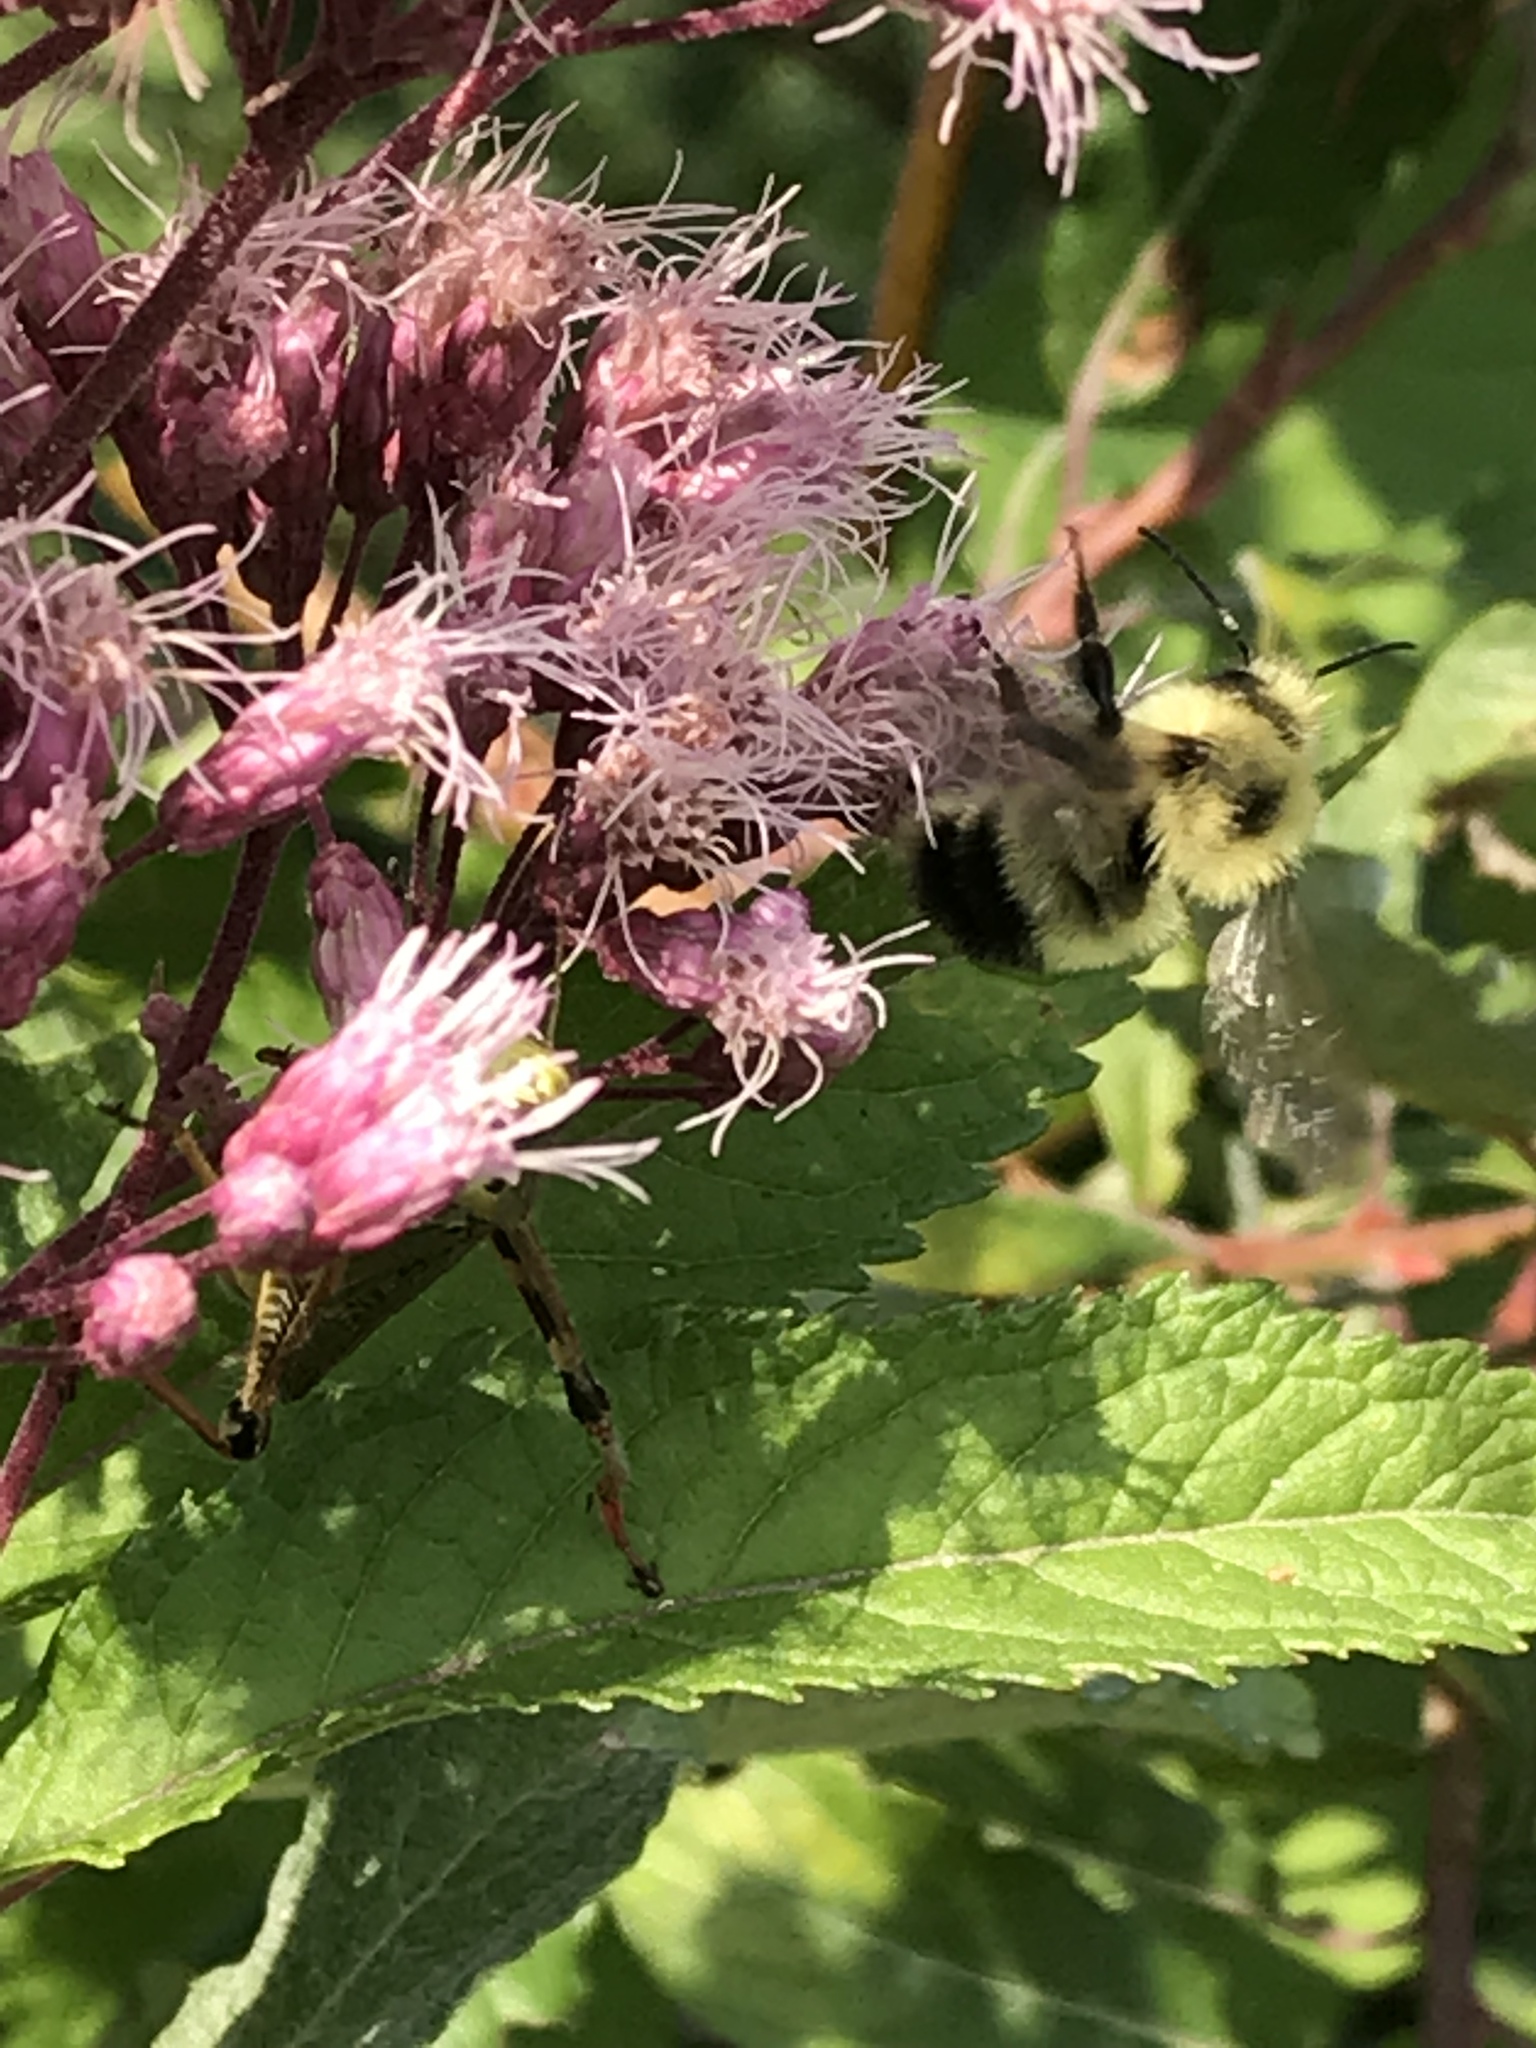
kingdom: Animalia
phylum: Arthropoda
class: Insecta
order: Hymenoptera
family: Apidae
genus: Bombus
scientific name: Bombus vagans
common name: Half-black bumble bee
